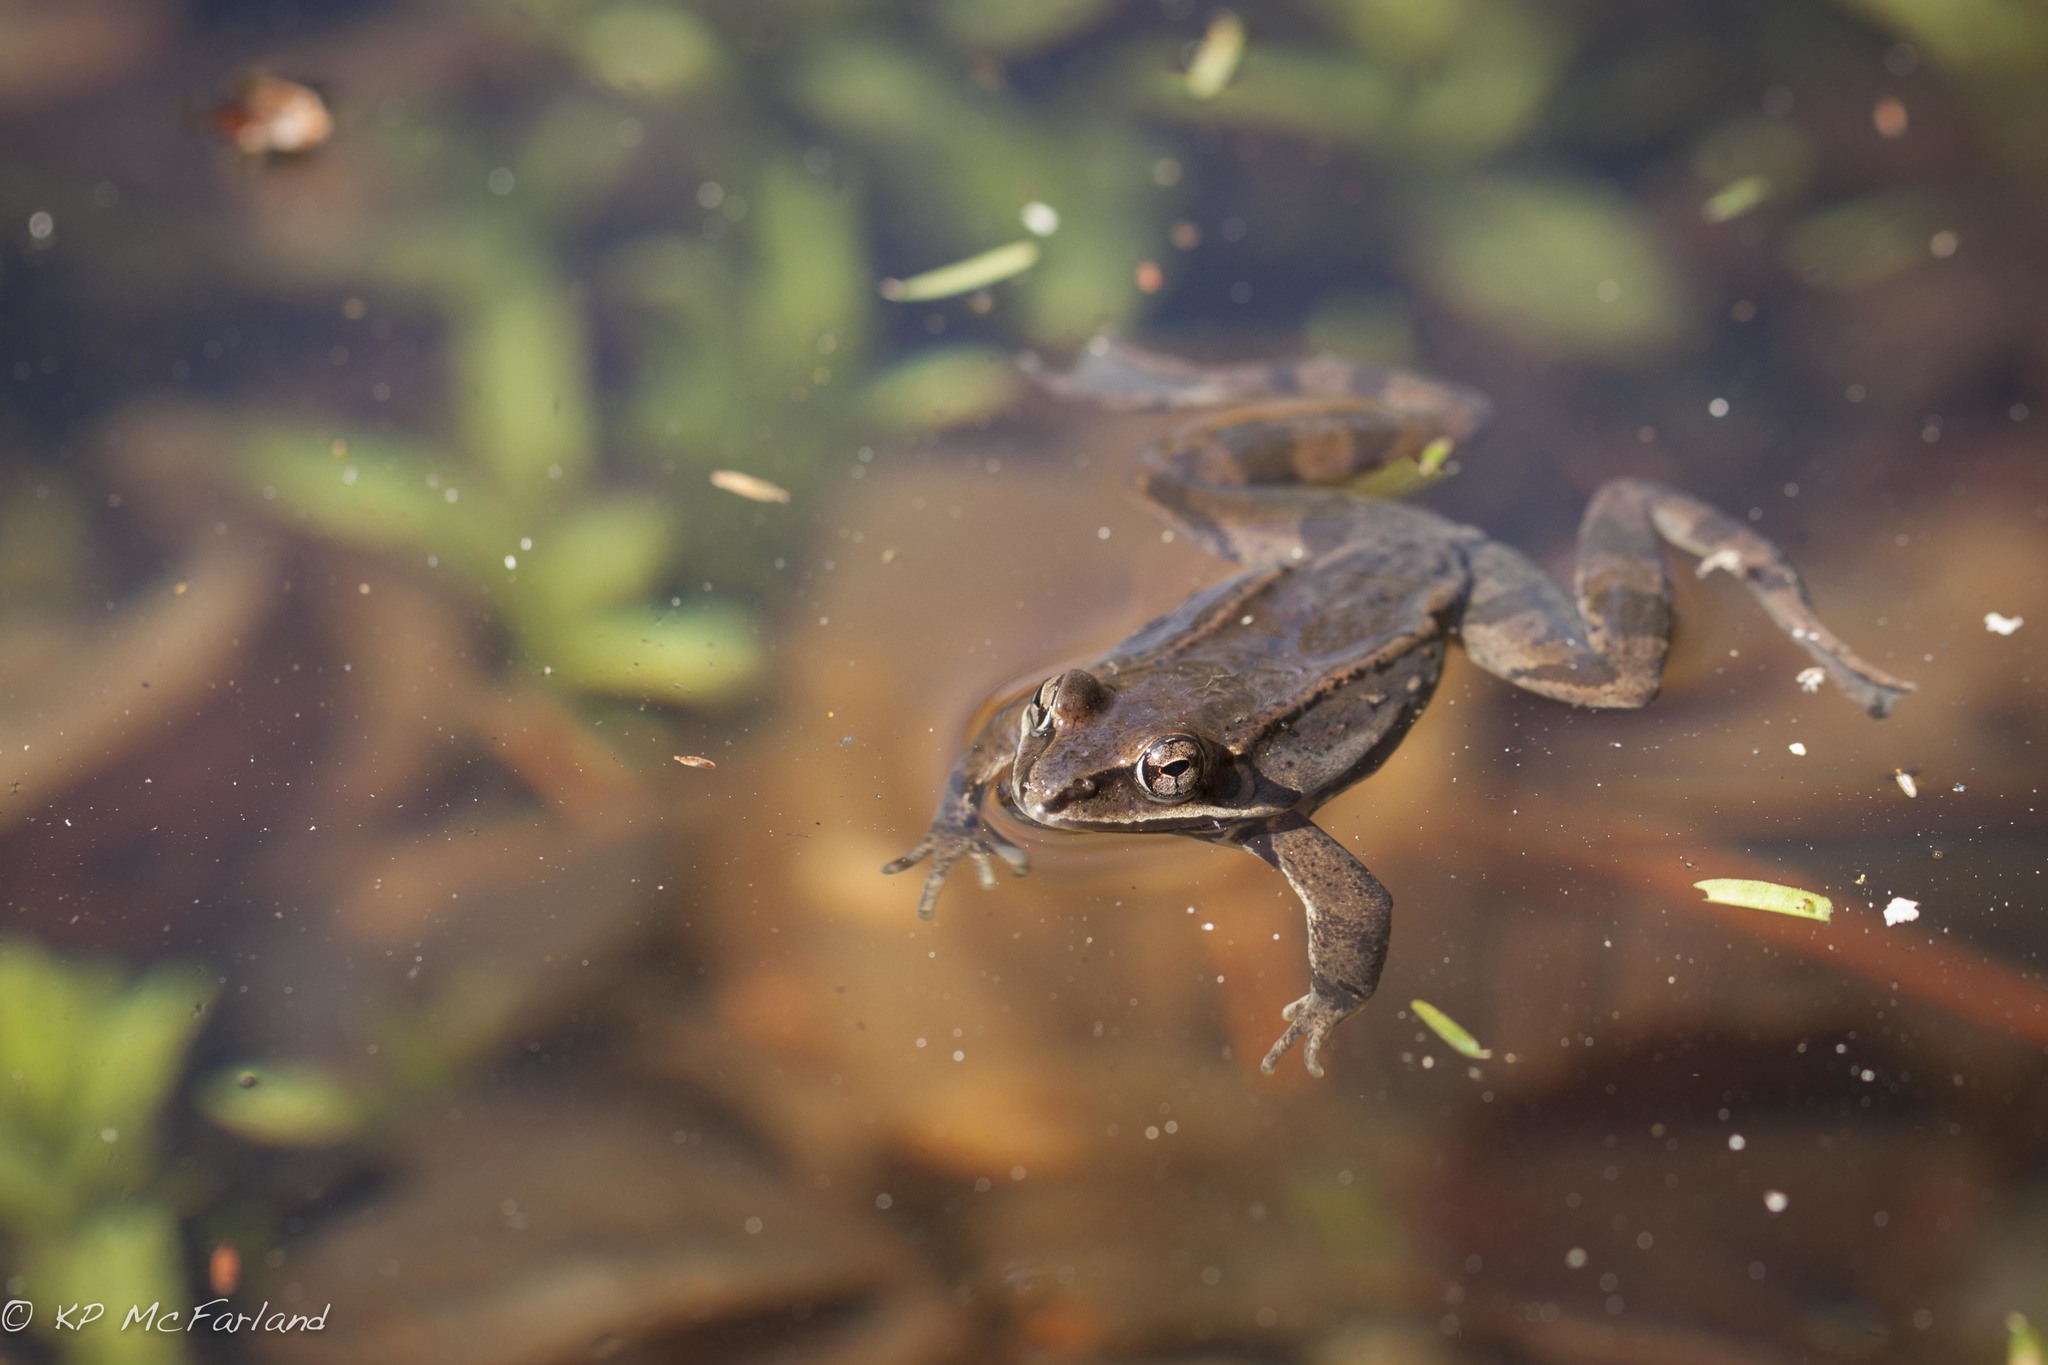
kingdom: Animalia
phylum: Chordata
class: Amphibia
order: Anura
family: Ranidae
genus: Lithobates
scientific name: Lithobates sylvaticus
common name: Wood frog
